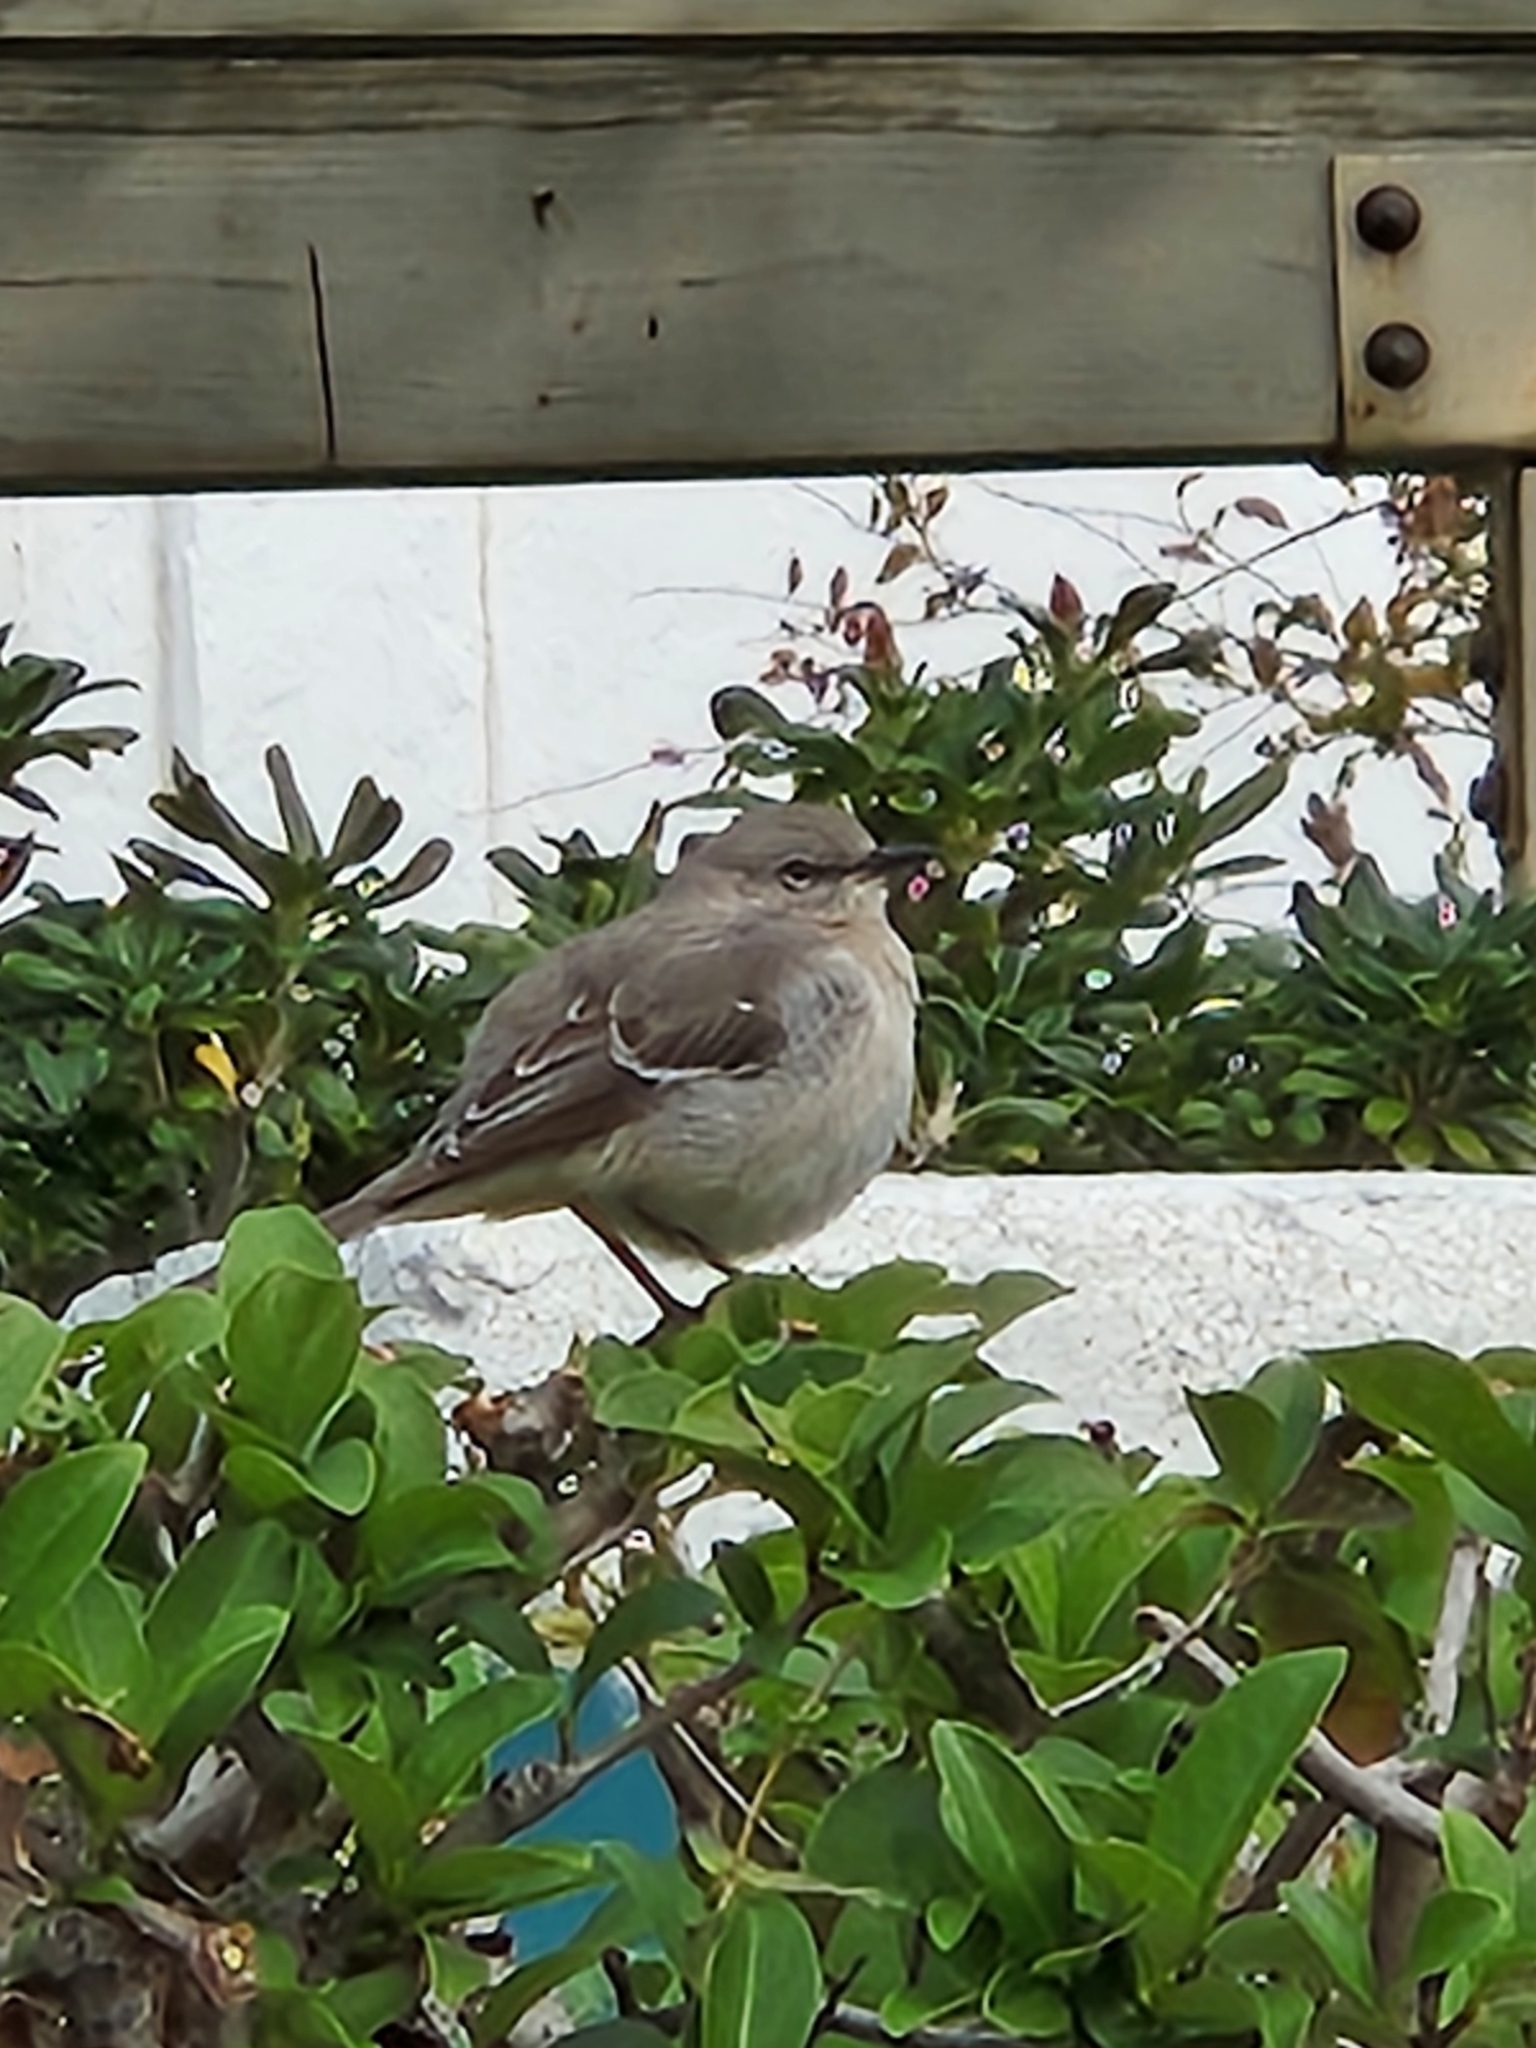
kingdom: Animalia
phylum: Chordata
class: Aves
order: Passeriformes
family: Mimidae
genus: Mimus
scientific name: Mimus polyglottos
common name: Northern mockingbird
